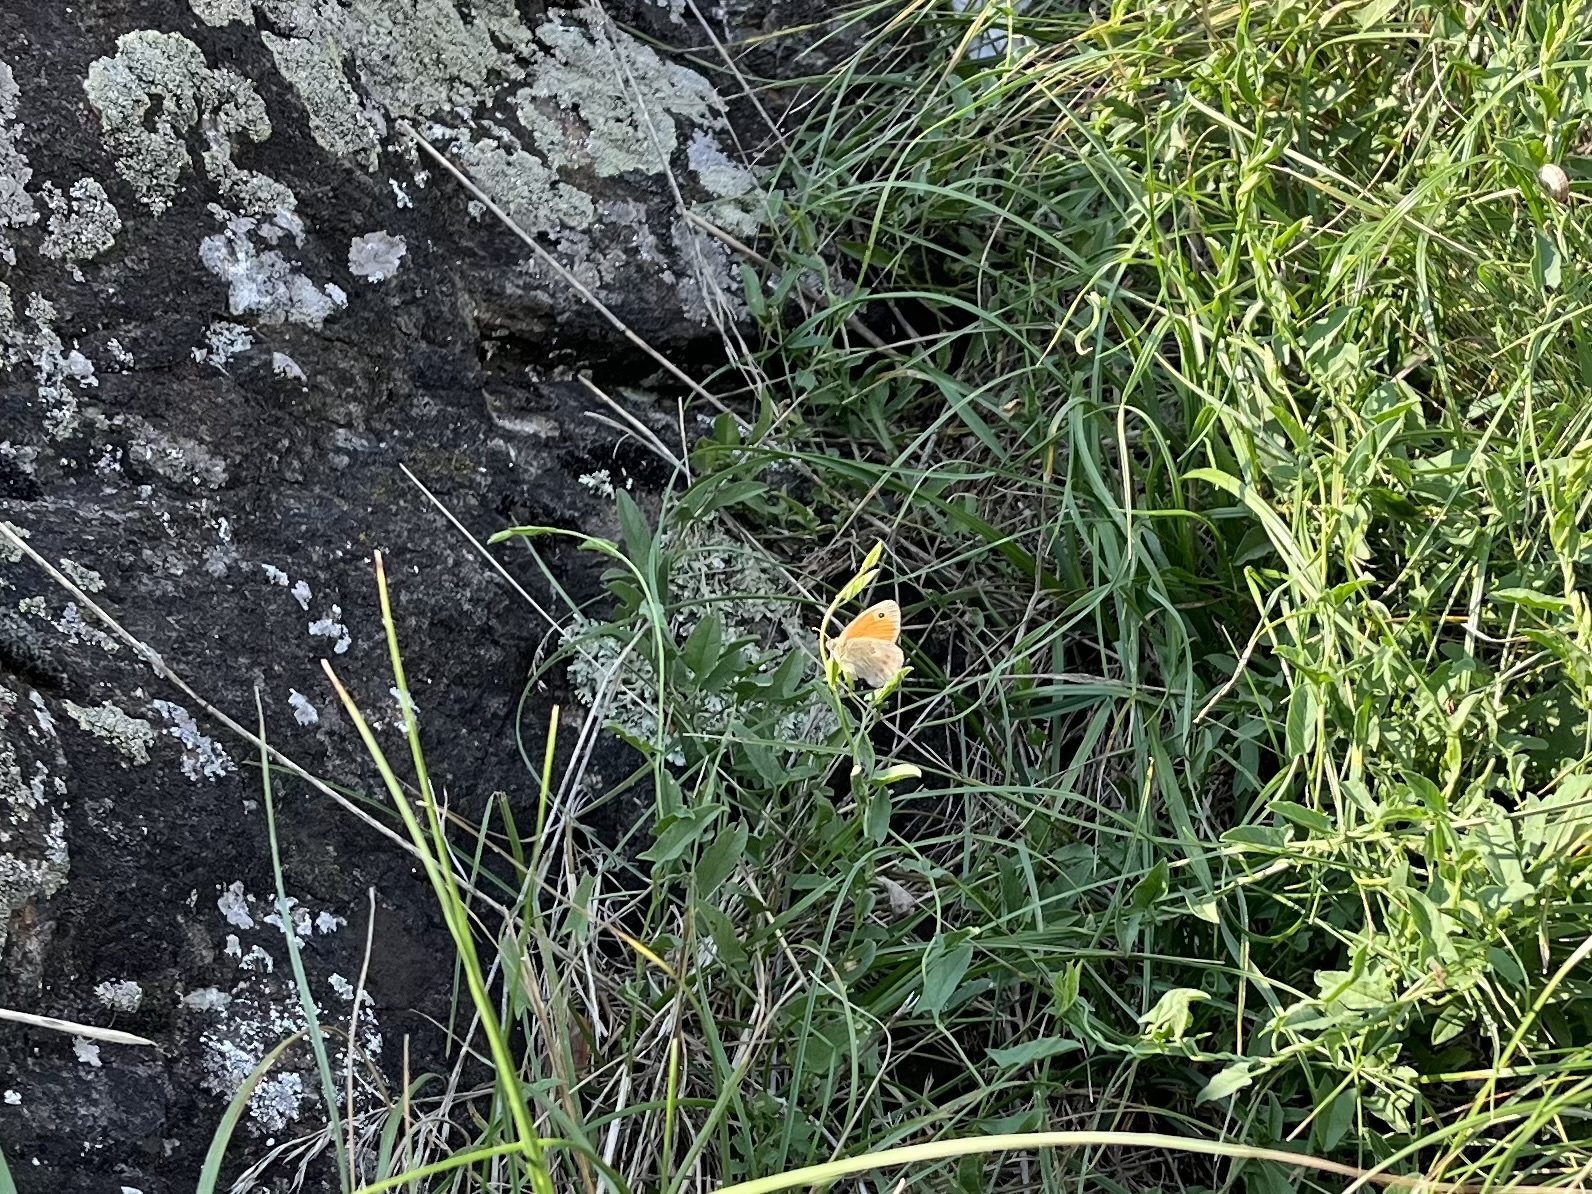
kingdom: Animalia
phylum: Arthropoda
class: Insecta
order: Lepidoptera
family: Nymphalidae
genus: Coenonympha
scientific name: Coenonympha pamphilus
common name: Small heath
